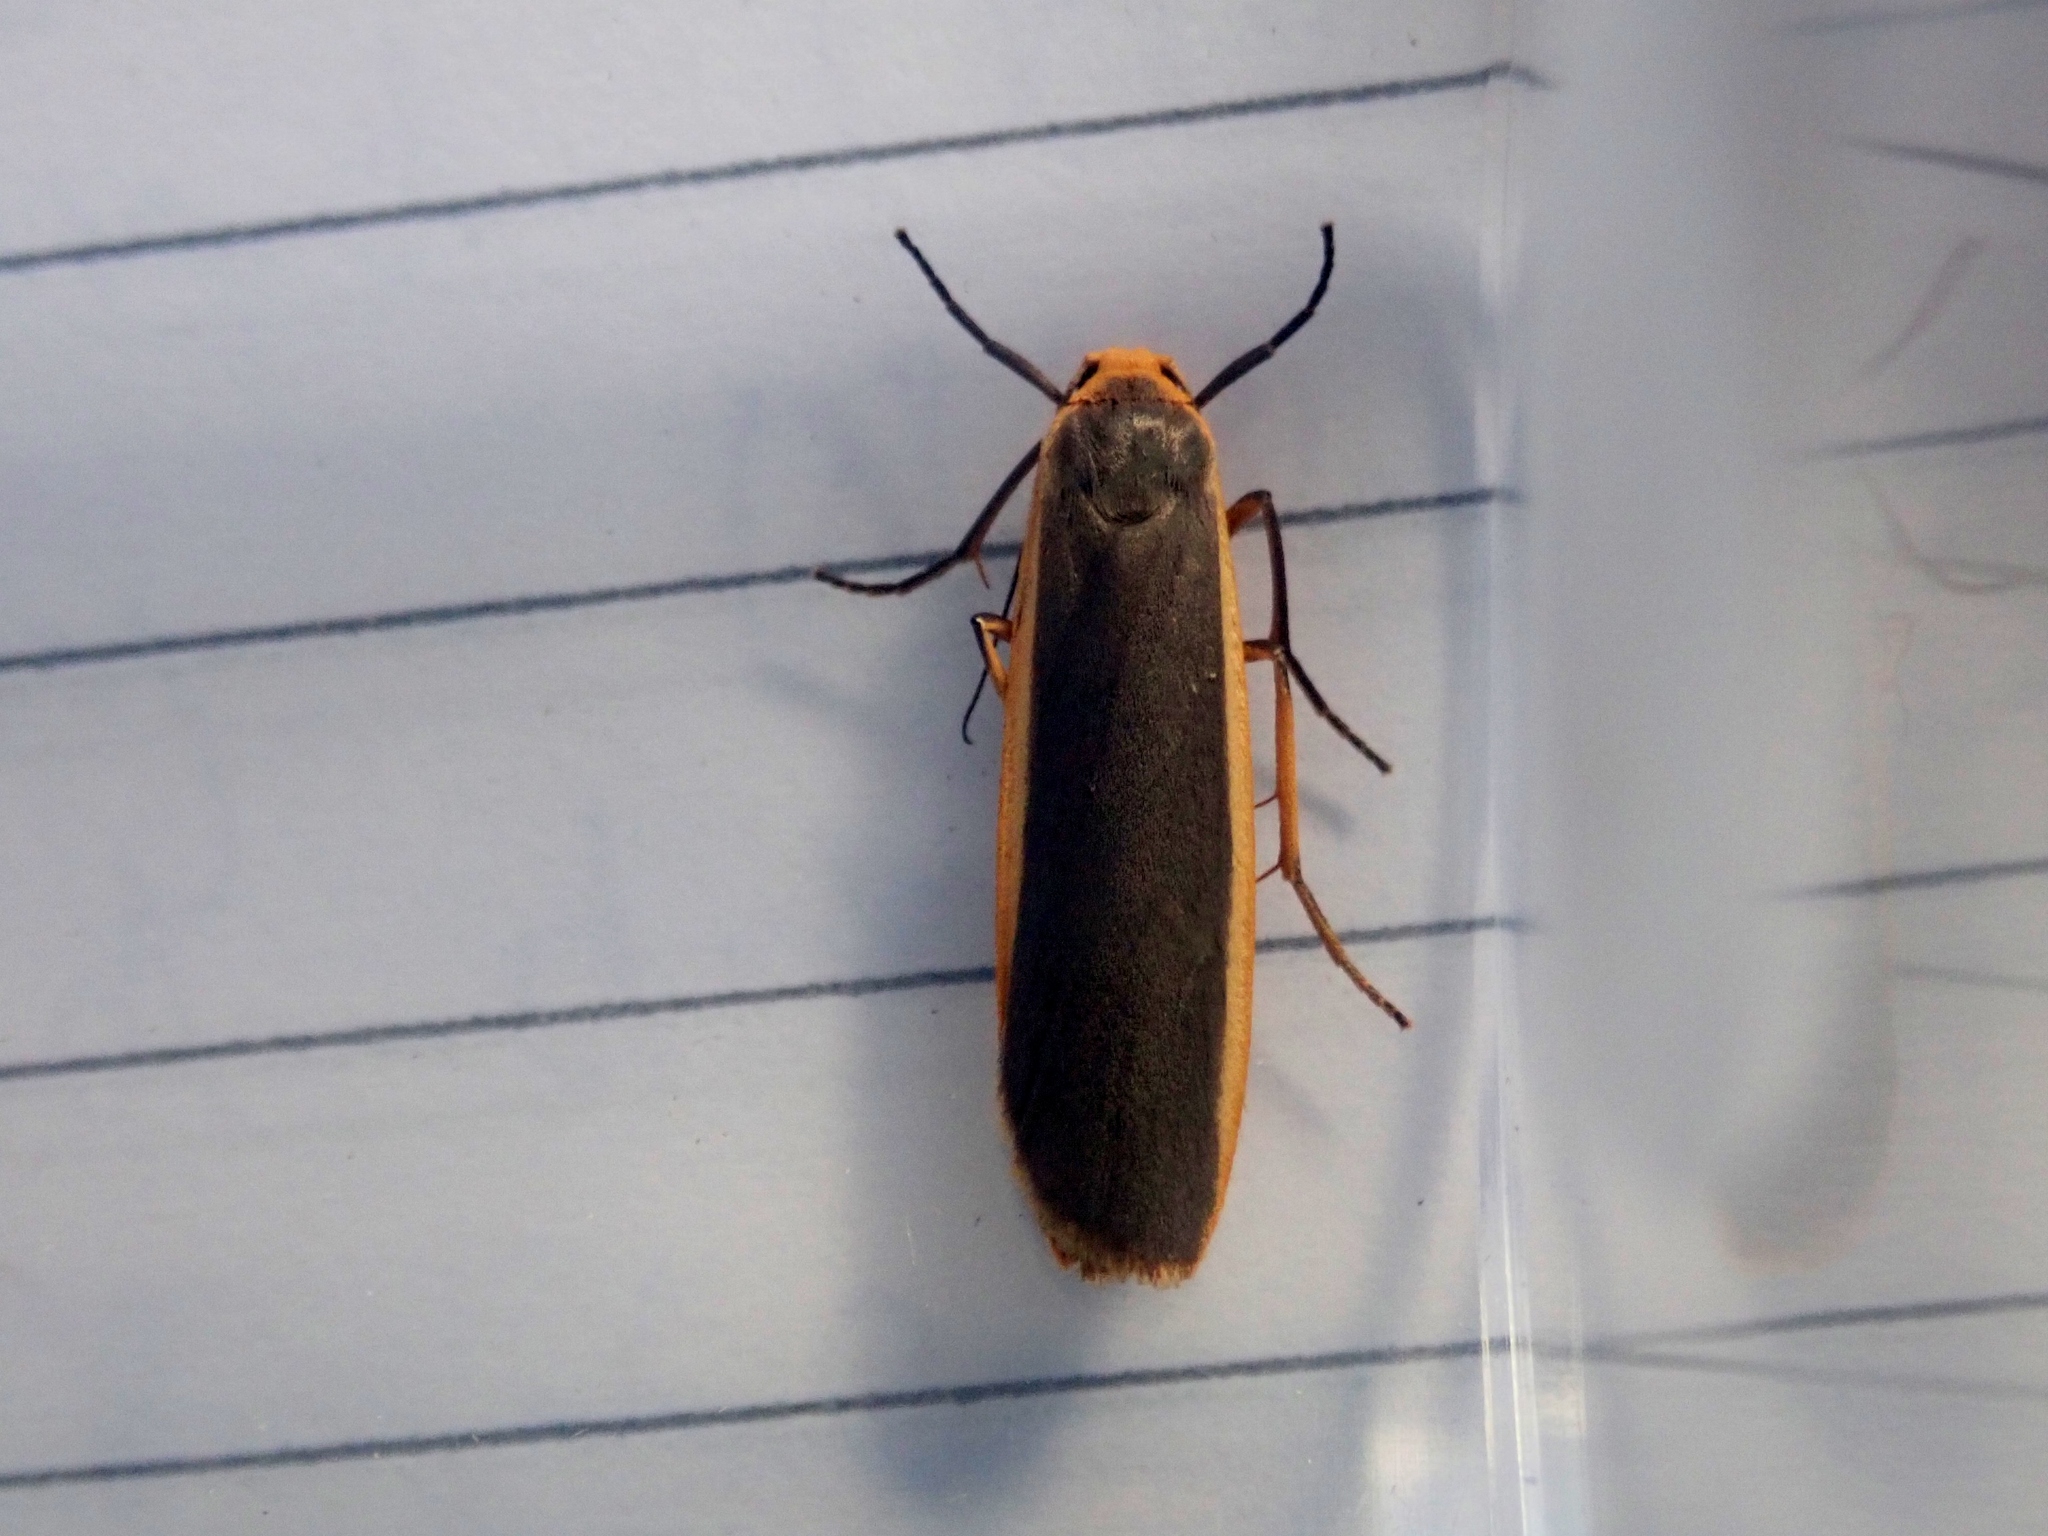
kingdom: Animalia
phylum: Arthropoda
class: Insecta
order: Lepidoptera
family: Erebidae
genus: Nyea
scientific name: Nyea lurideola
